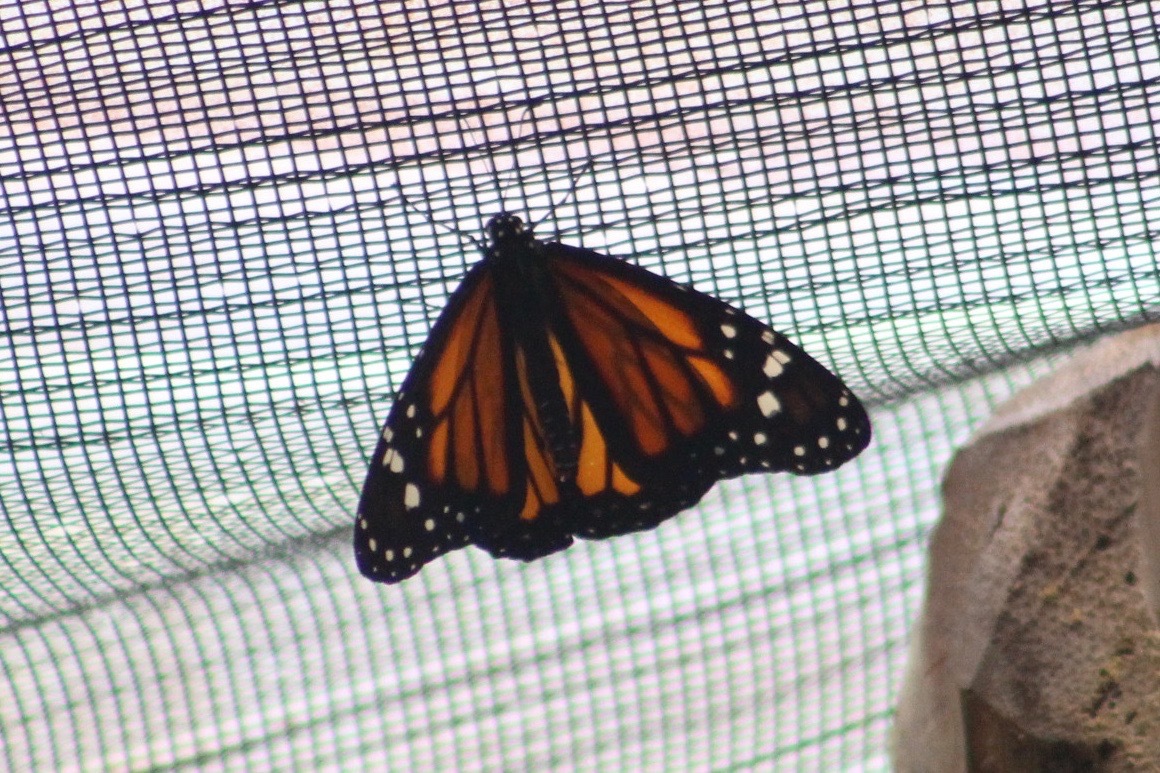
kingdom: Animalia
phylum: Arthropoda
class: Insecta
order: Lepidoptera
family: Nymphalidae
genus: Danaus
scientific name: Danaus plexippus
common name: Monarch
